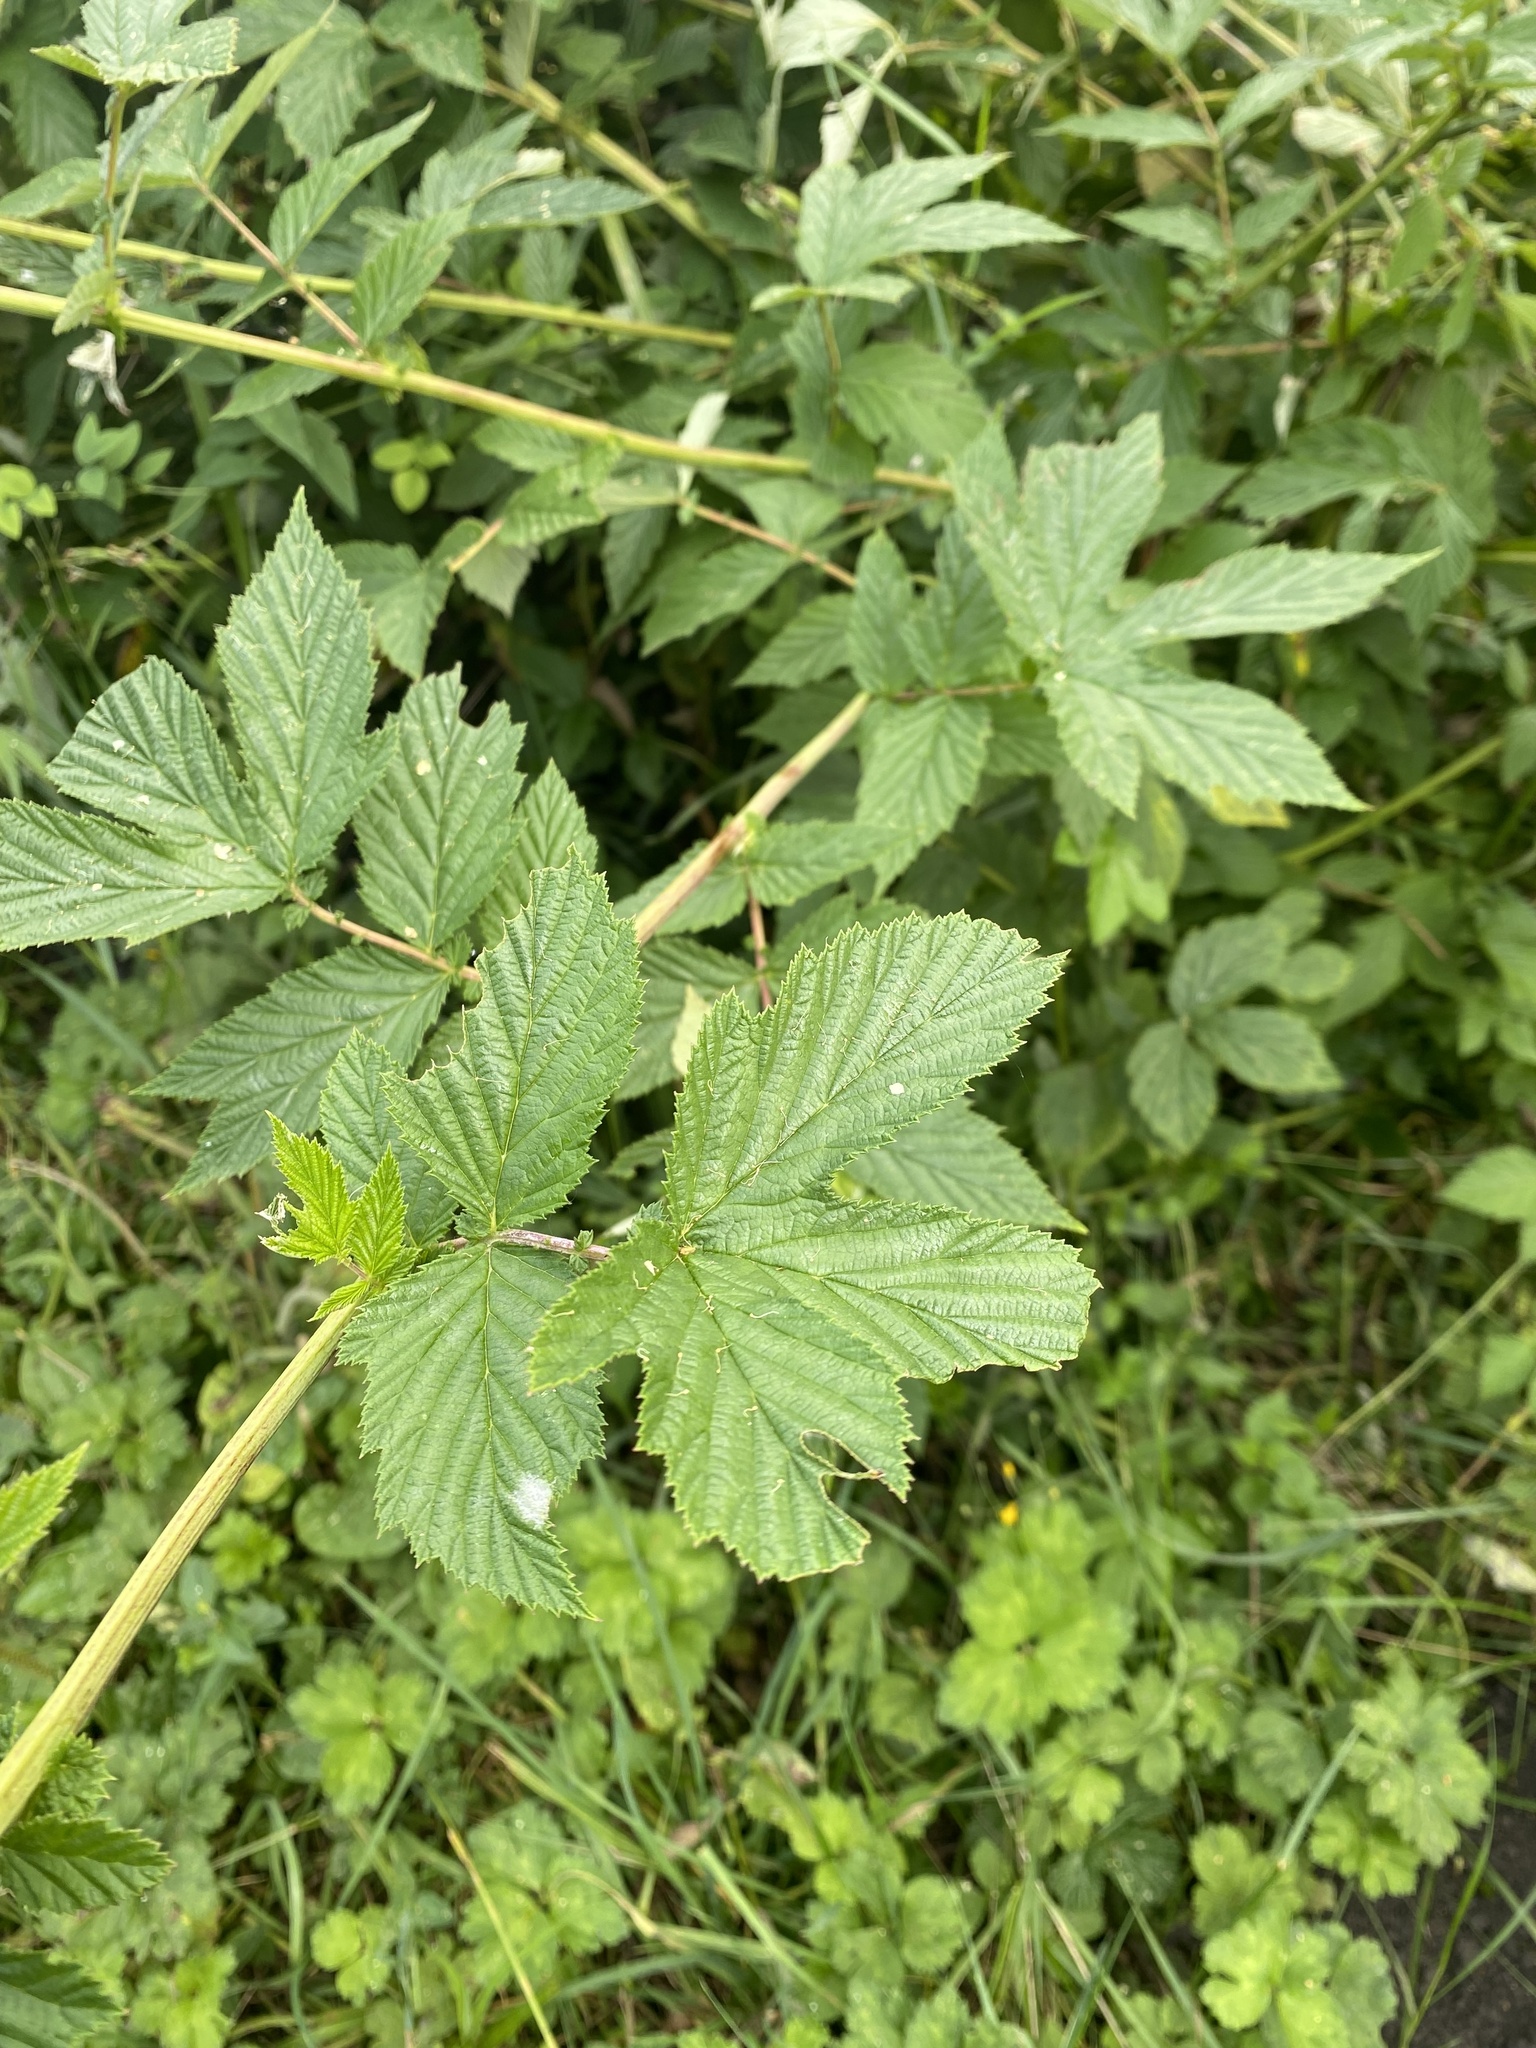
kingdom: Plantae
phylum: Tracheophyta
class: Magnoliopsida
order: Rosales
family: Rosaceae
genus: Filipendula
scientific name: Filipendula ulmaria
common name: Meadowsweet
